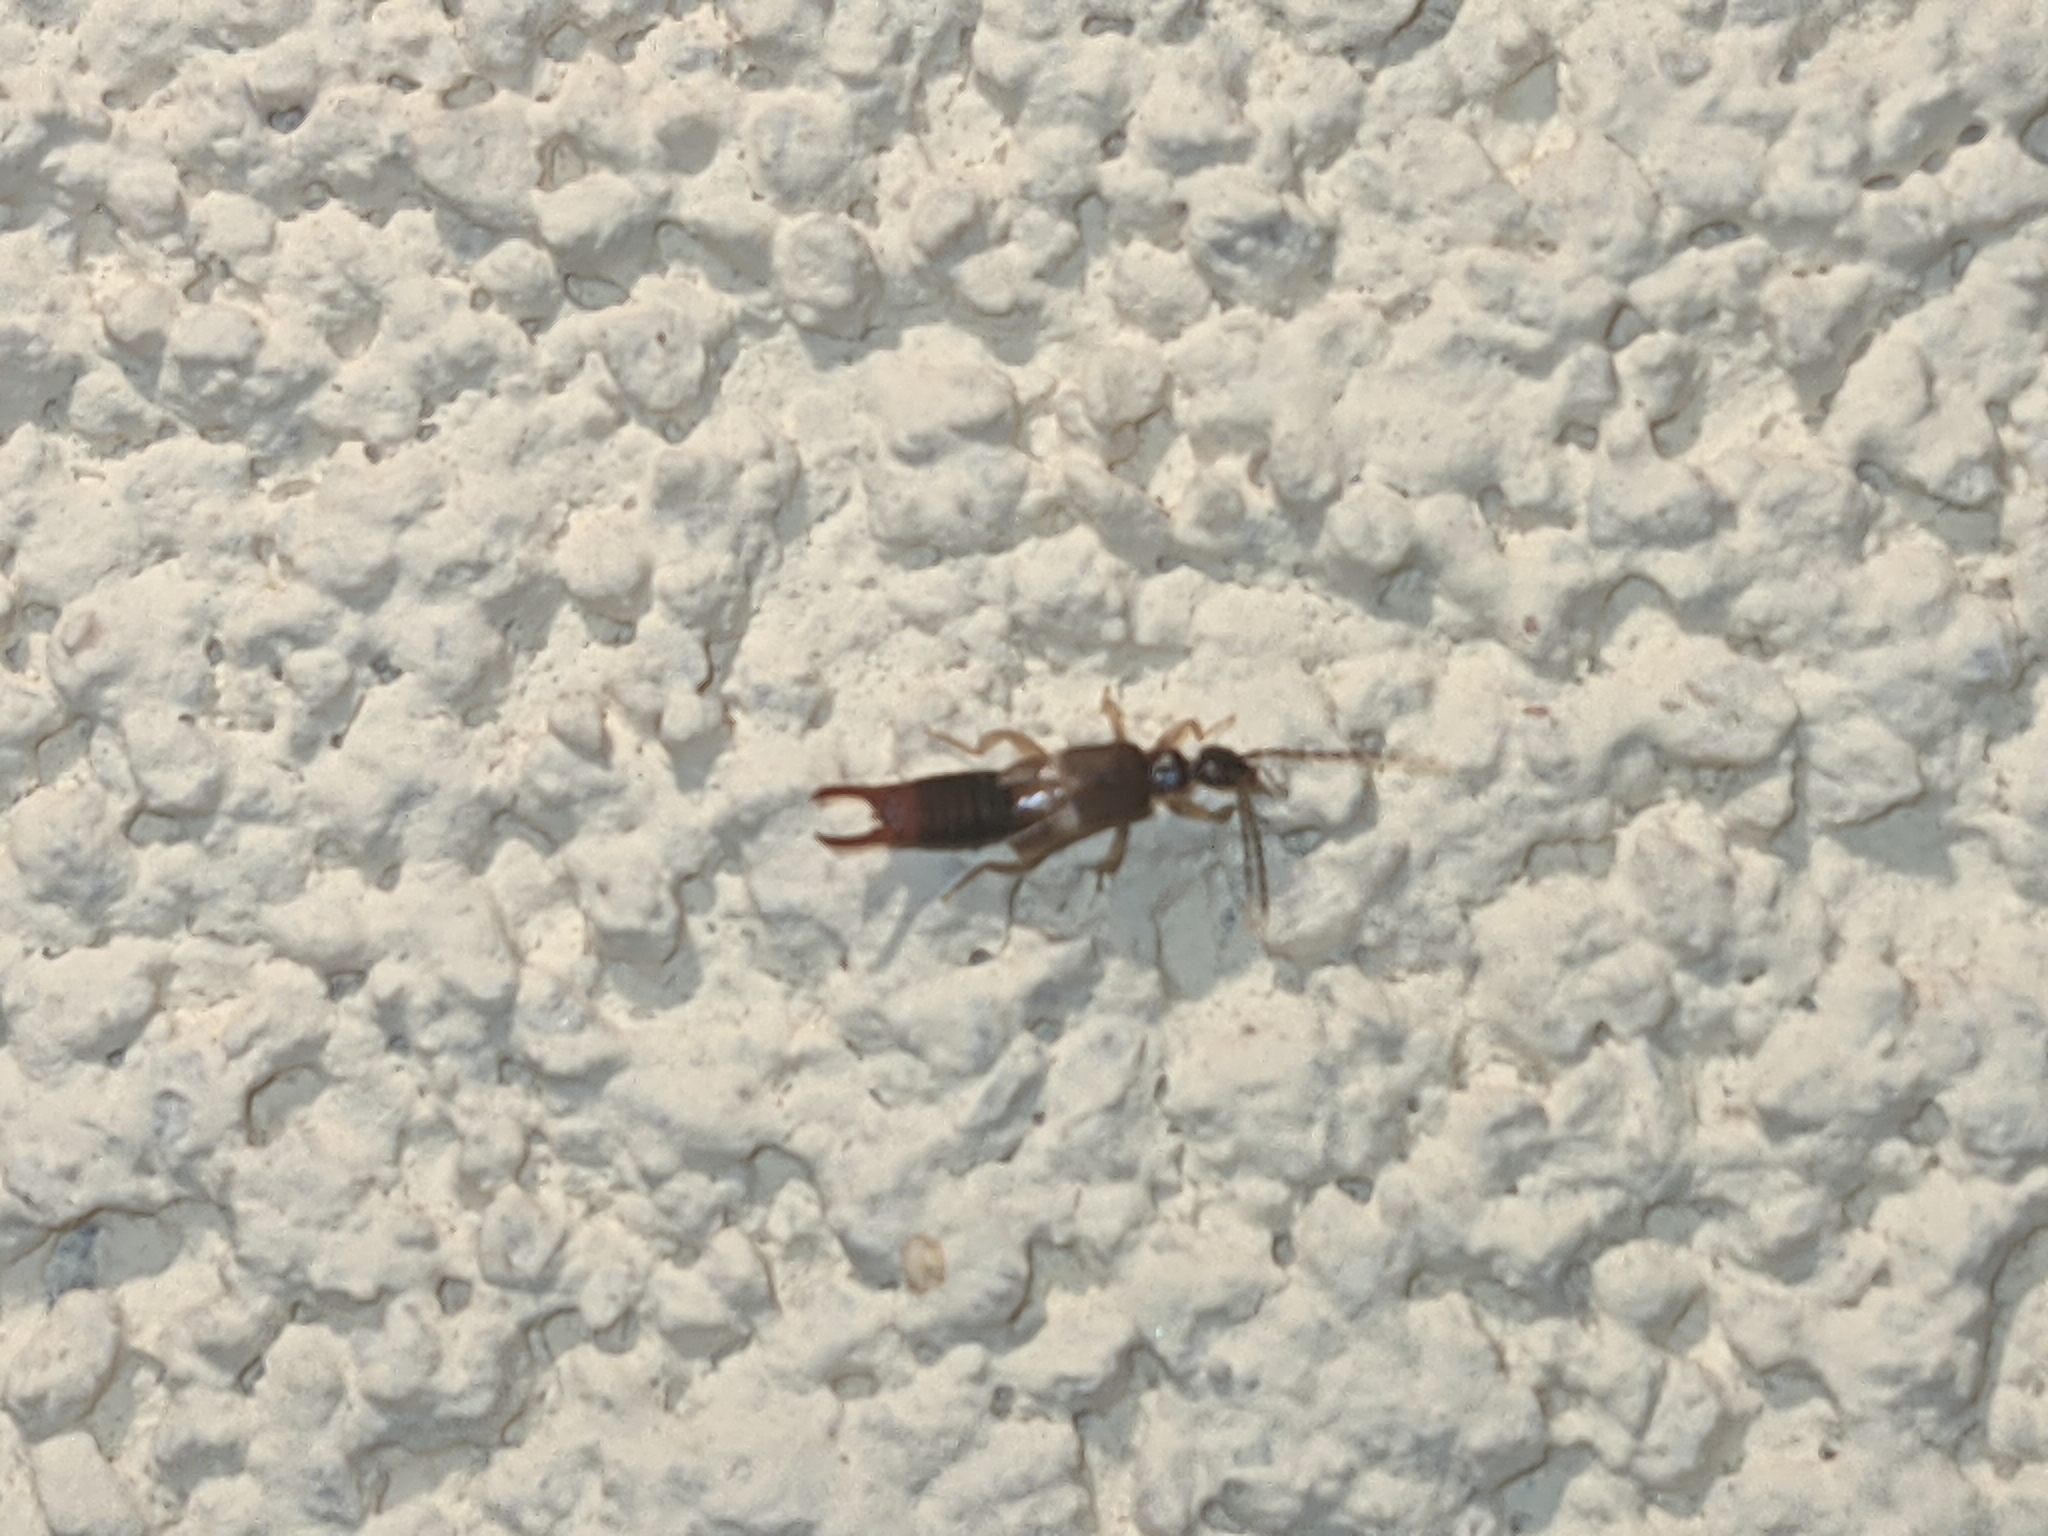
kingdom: Animalia
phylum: Arthropoda
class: Insecta
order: Dermaptera
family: Spongiphoridae
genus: Labia
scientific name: Labia minor
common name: Lesser earwig
